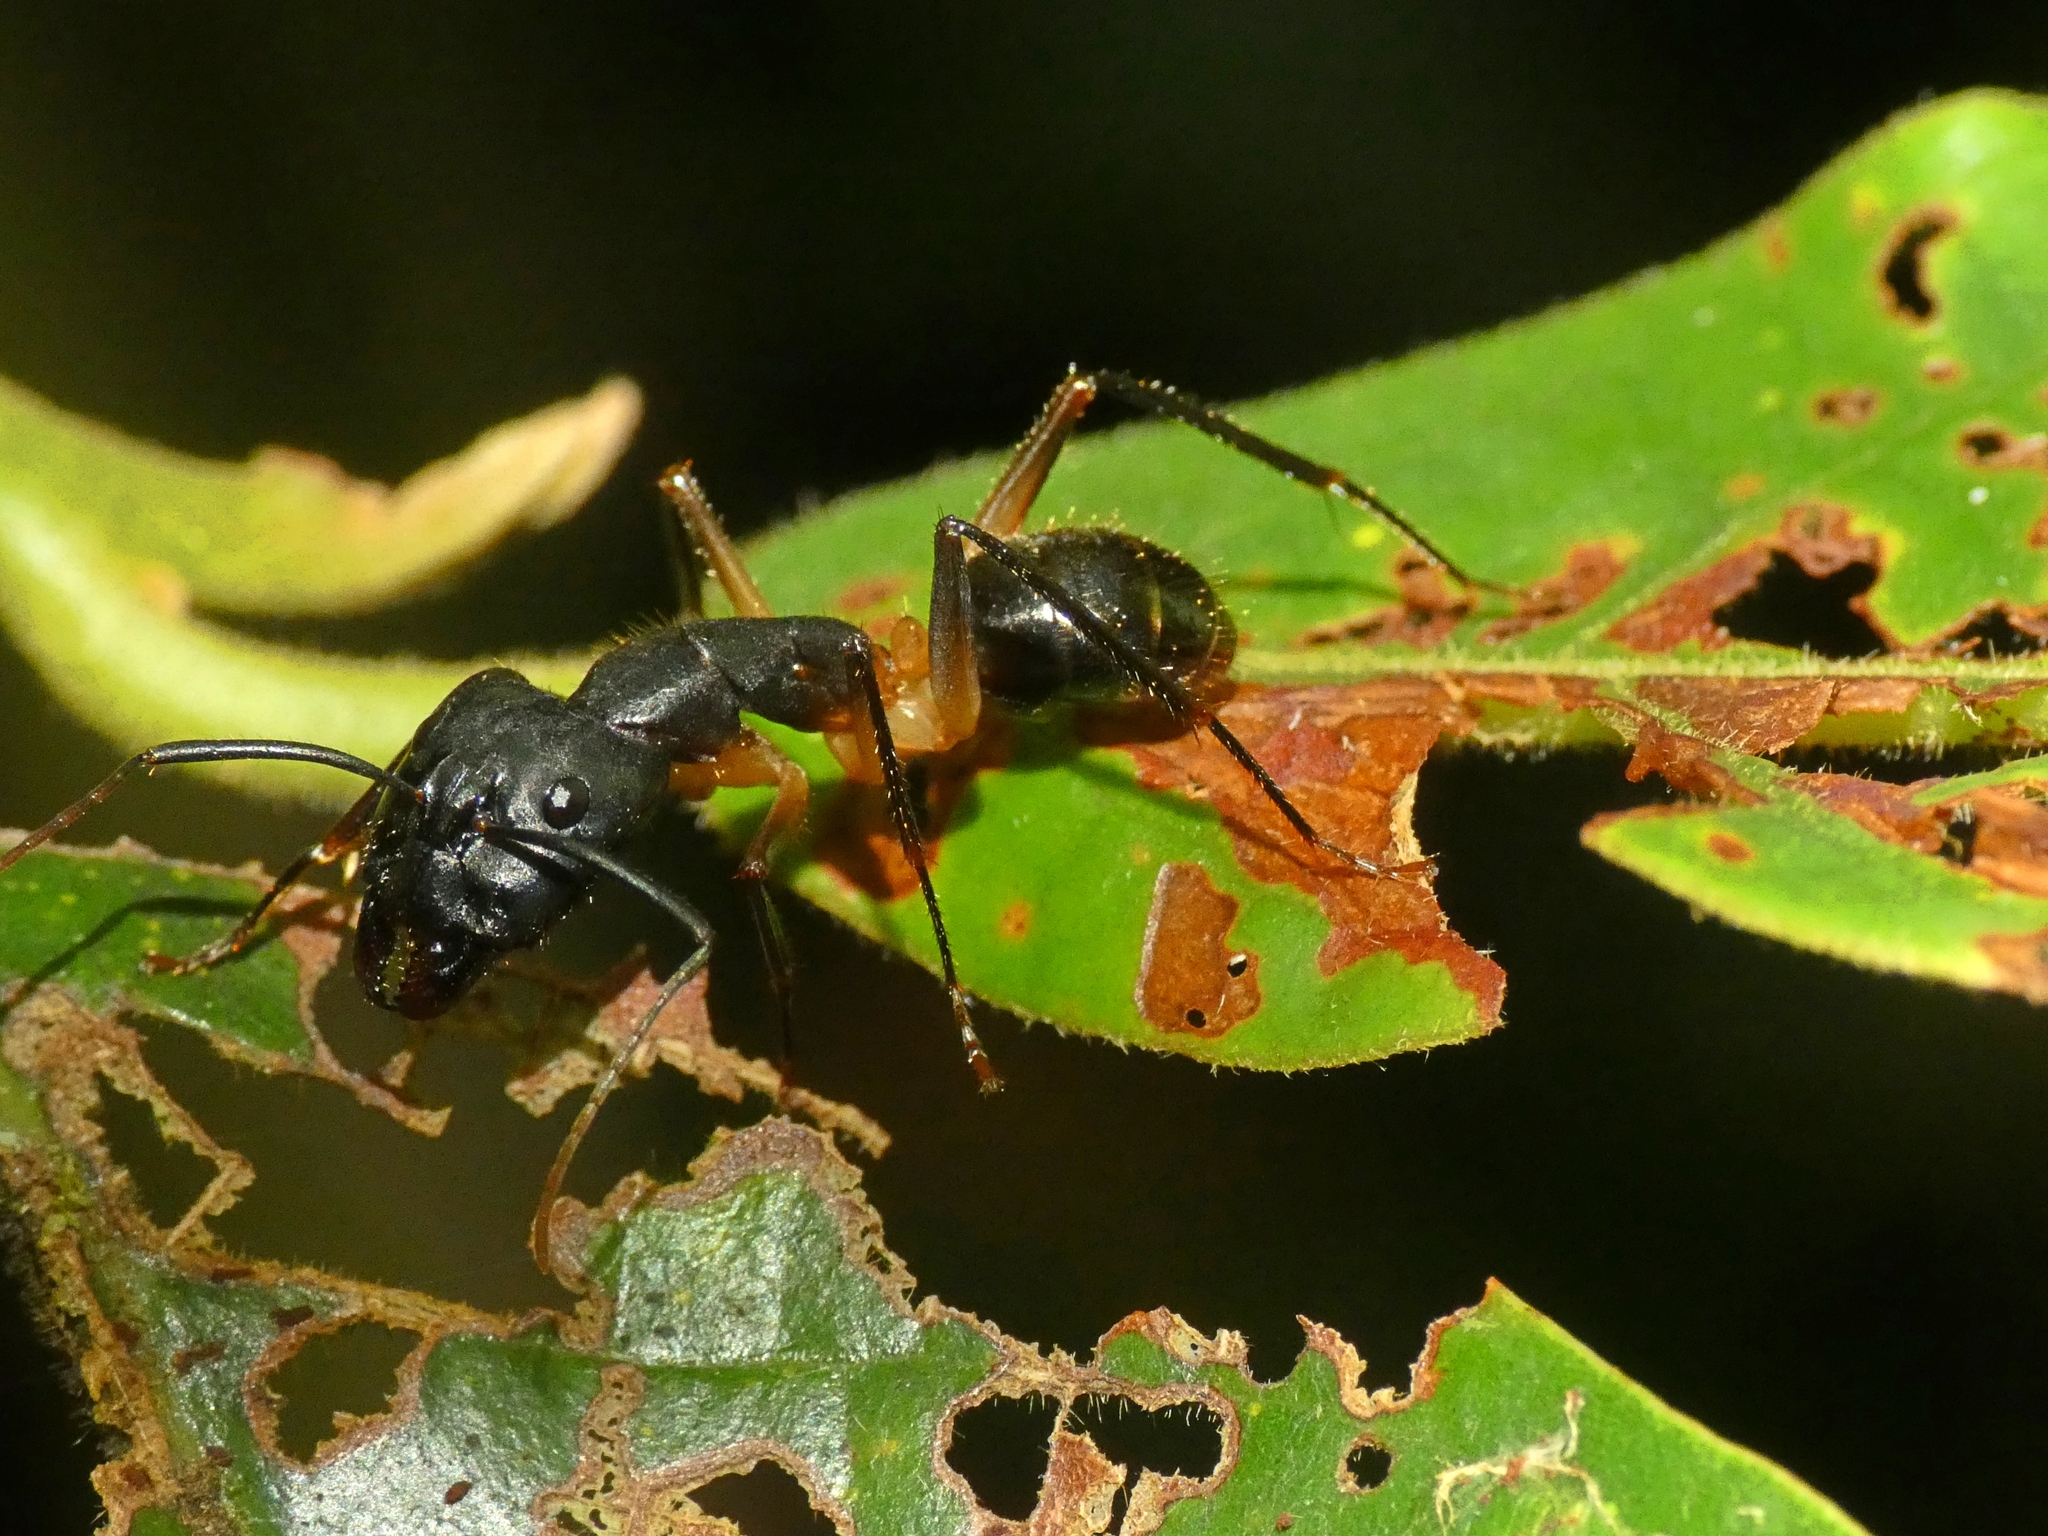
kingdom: Animalia
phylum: Arthropoda
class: Insecta
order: Hymenoptera
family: Formicidae
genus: Camponotus
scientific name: Camponotus
